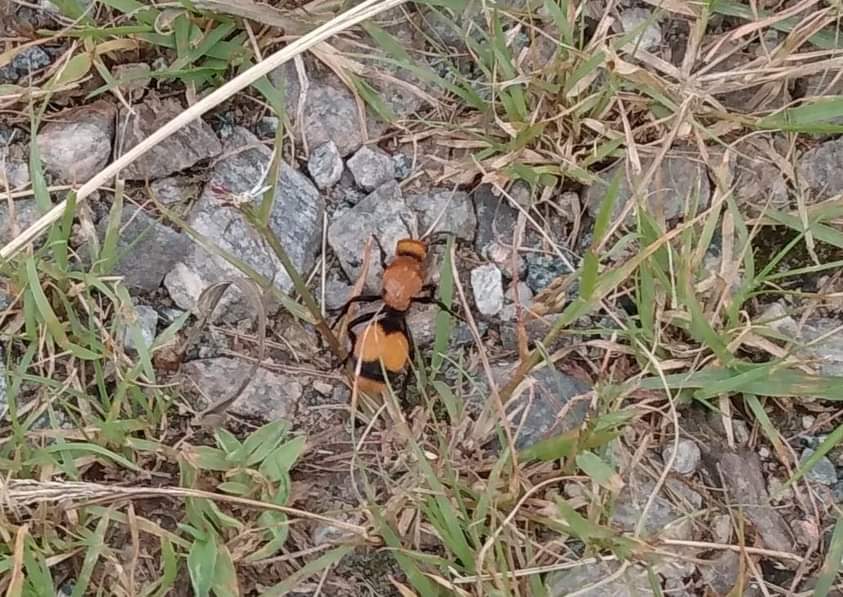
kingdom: Animalia
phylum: Arthropoda
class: Insecta
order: Hymenoptera
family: Mutillidae
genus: Dasymutilla
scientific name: Dasymutilla occidentalis
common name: Common eastern velvet ant
